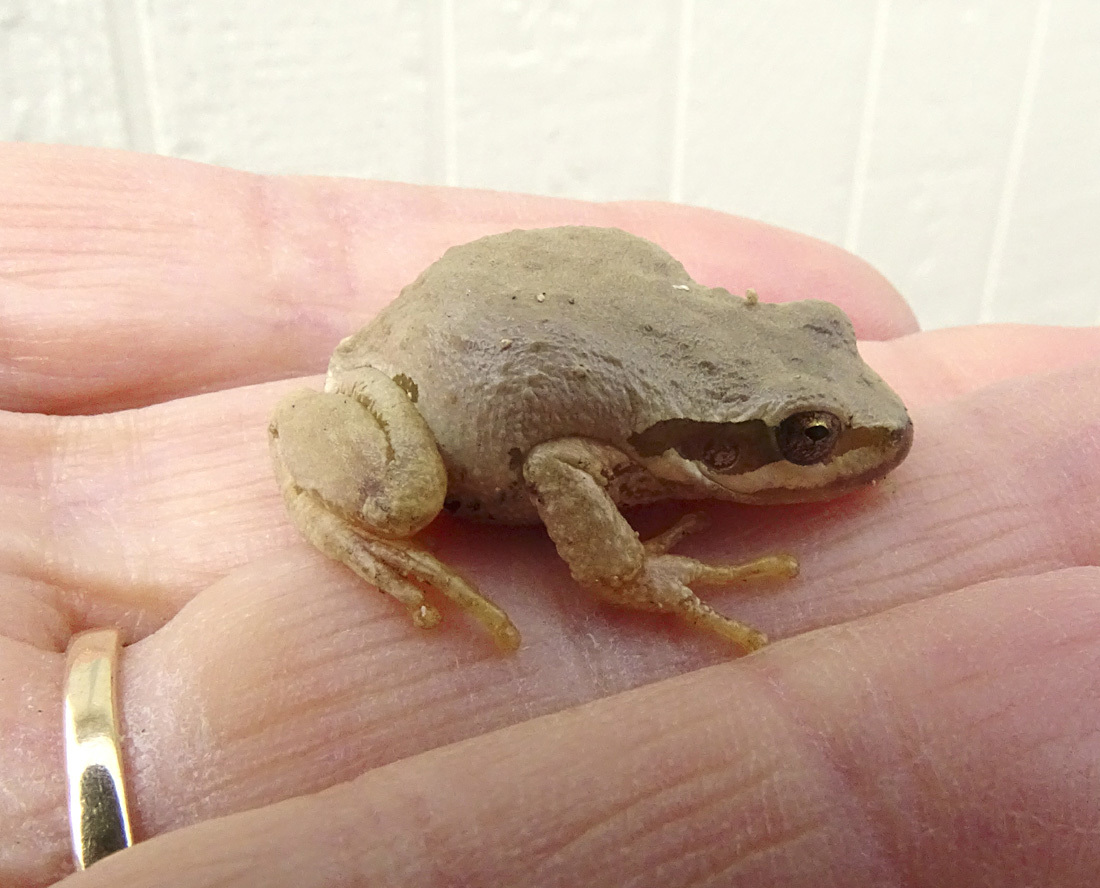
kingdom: Animalia
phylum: Chordata
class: Amphibia
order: Anura
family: Hylidae
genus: Pseudacris
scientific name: Pseudacris regilla
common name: Pacific chorus frog
